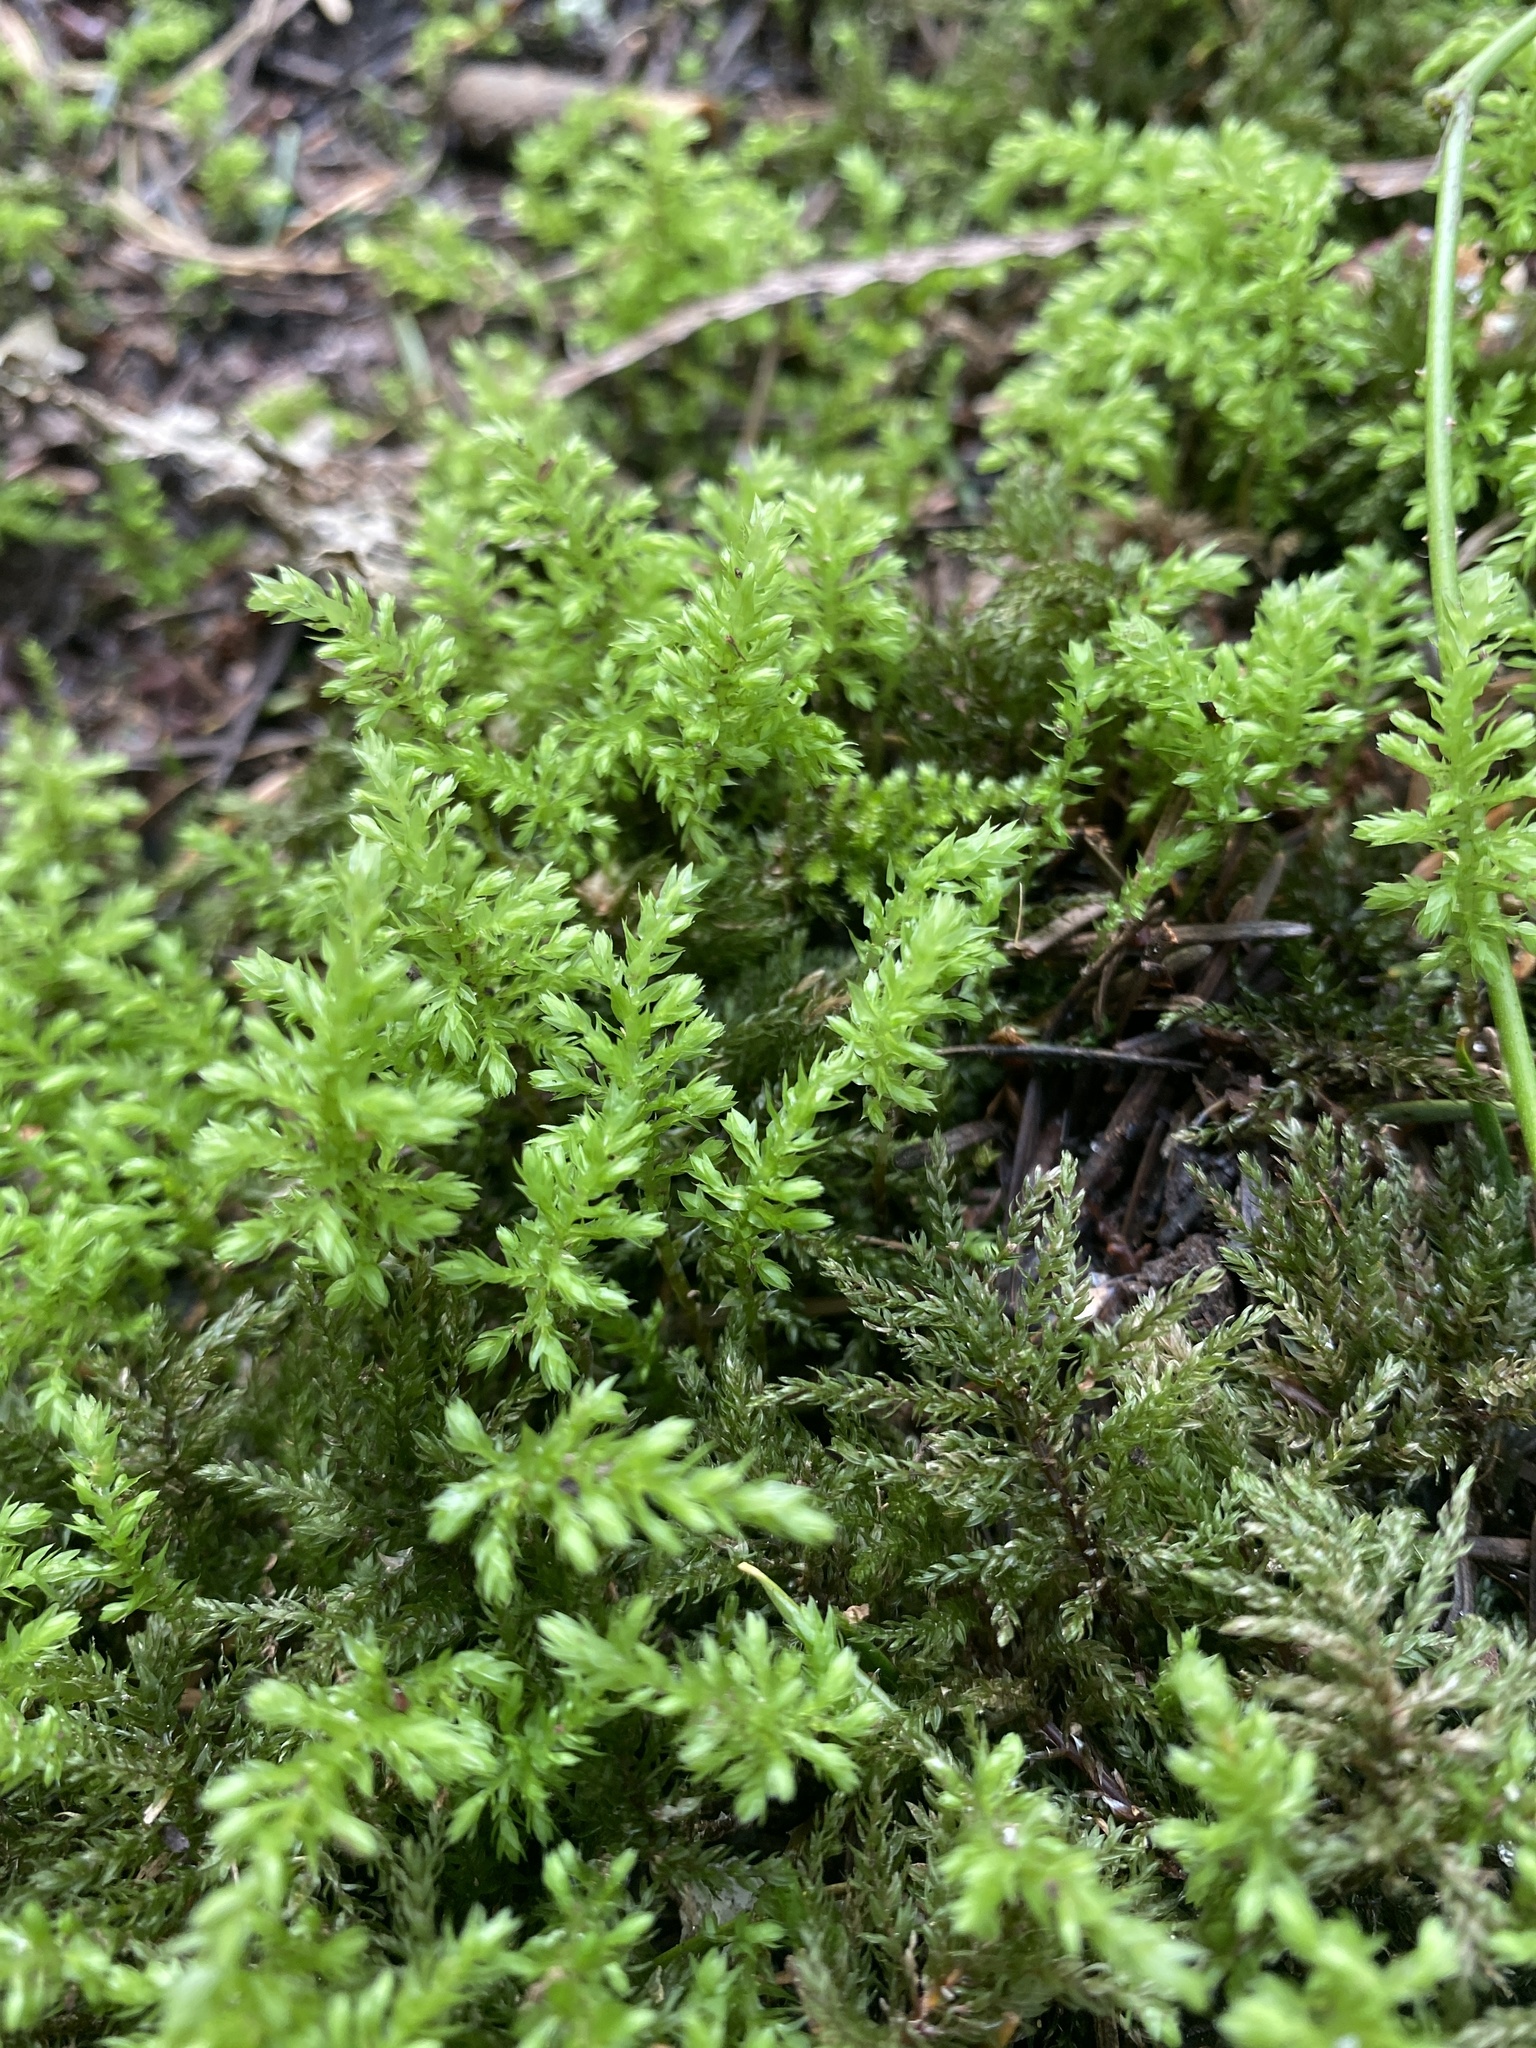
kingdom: Plantae
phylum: Bryophyta
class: Bryopsida
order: Bryales
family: Mniaceae
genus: Leucolepis
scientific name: Leucolepis acanthoneura
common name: Leucolepis umbrella moss
